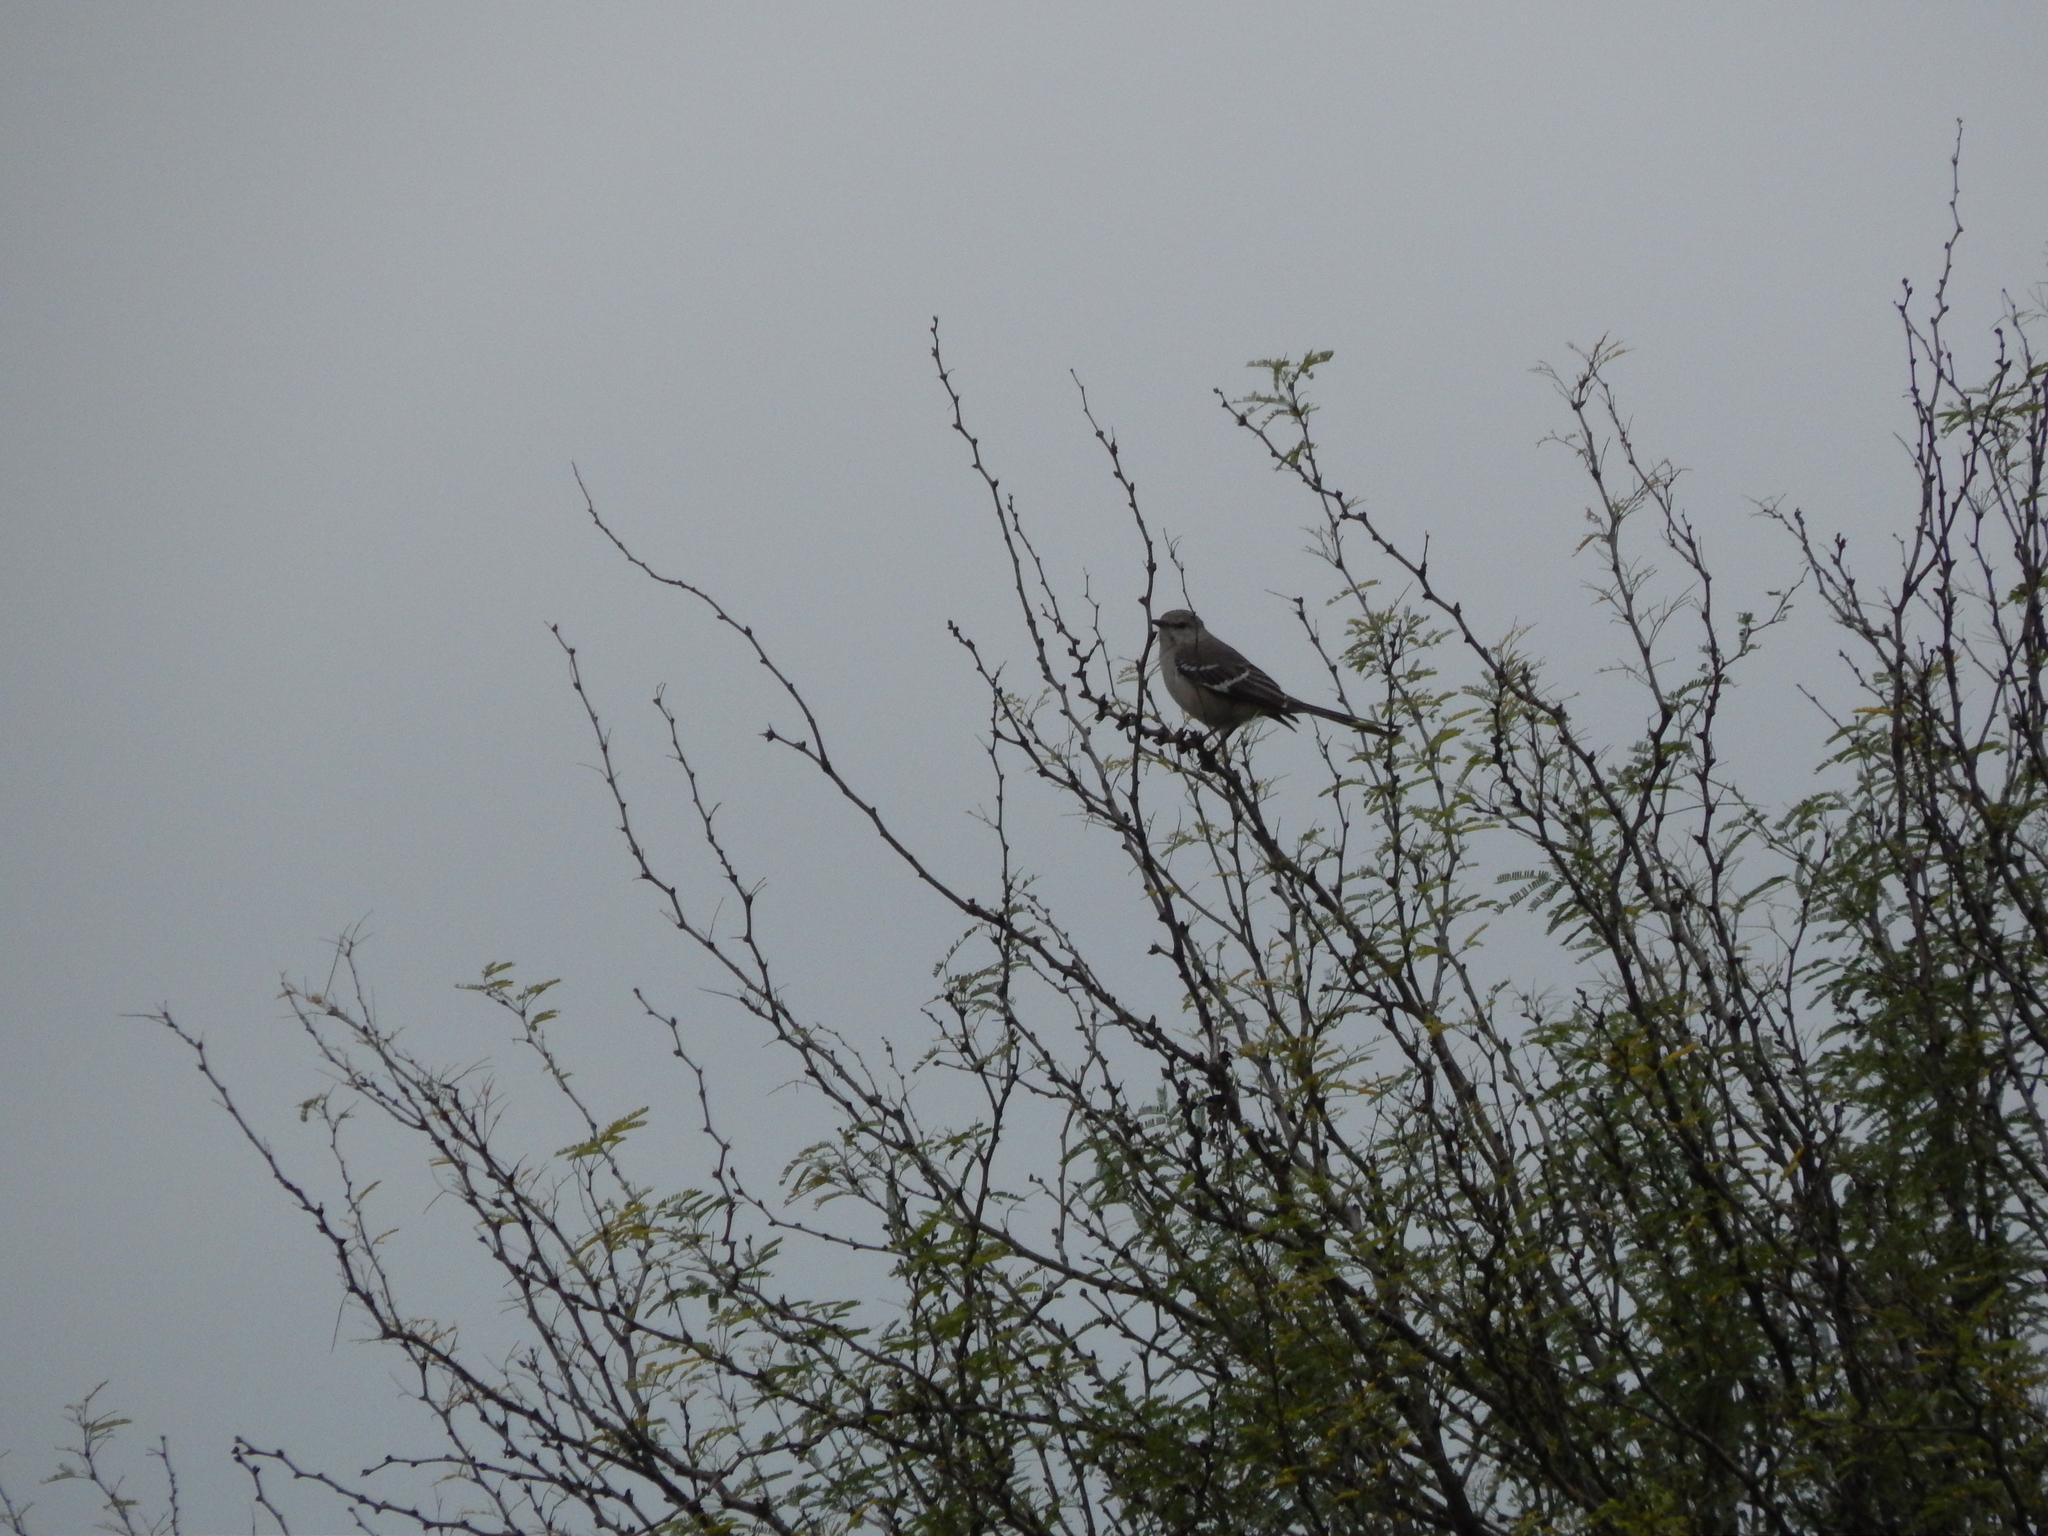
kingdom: Animalia
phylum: Chordata
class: Aves
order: Passeriformes
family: Mimidae
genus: Mimus
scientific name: Mimus polyglottos
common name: Northern mockingbird
